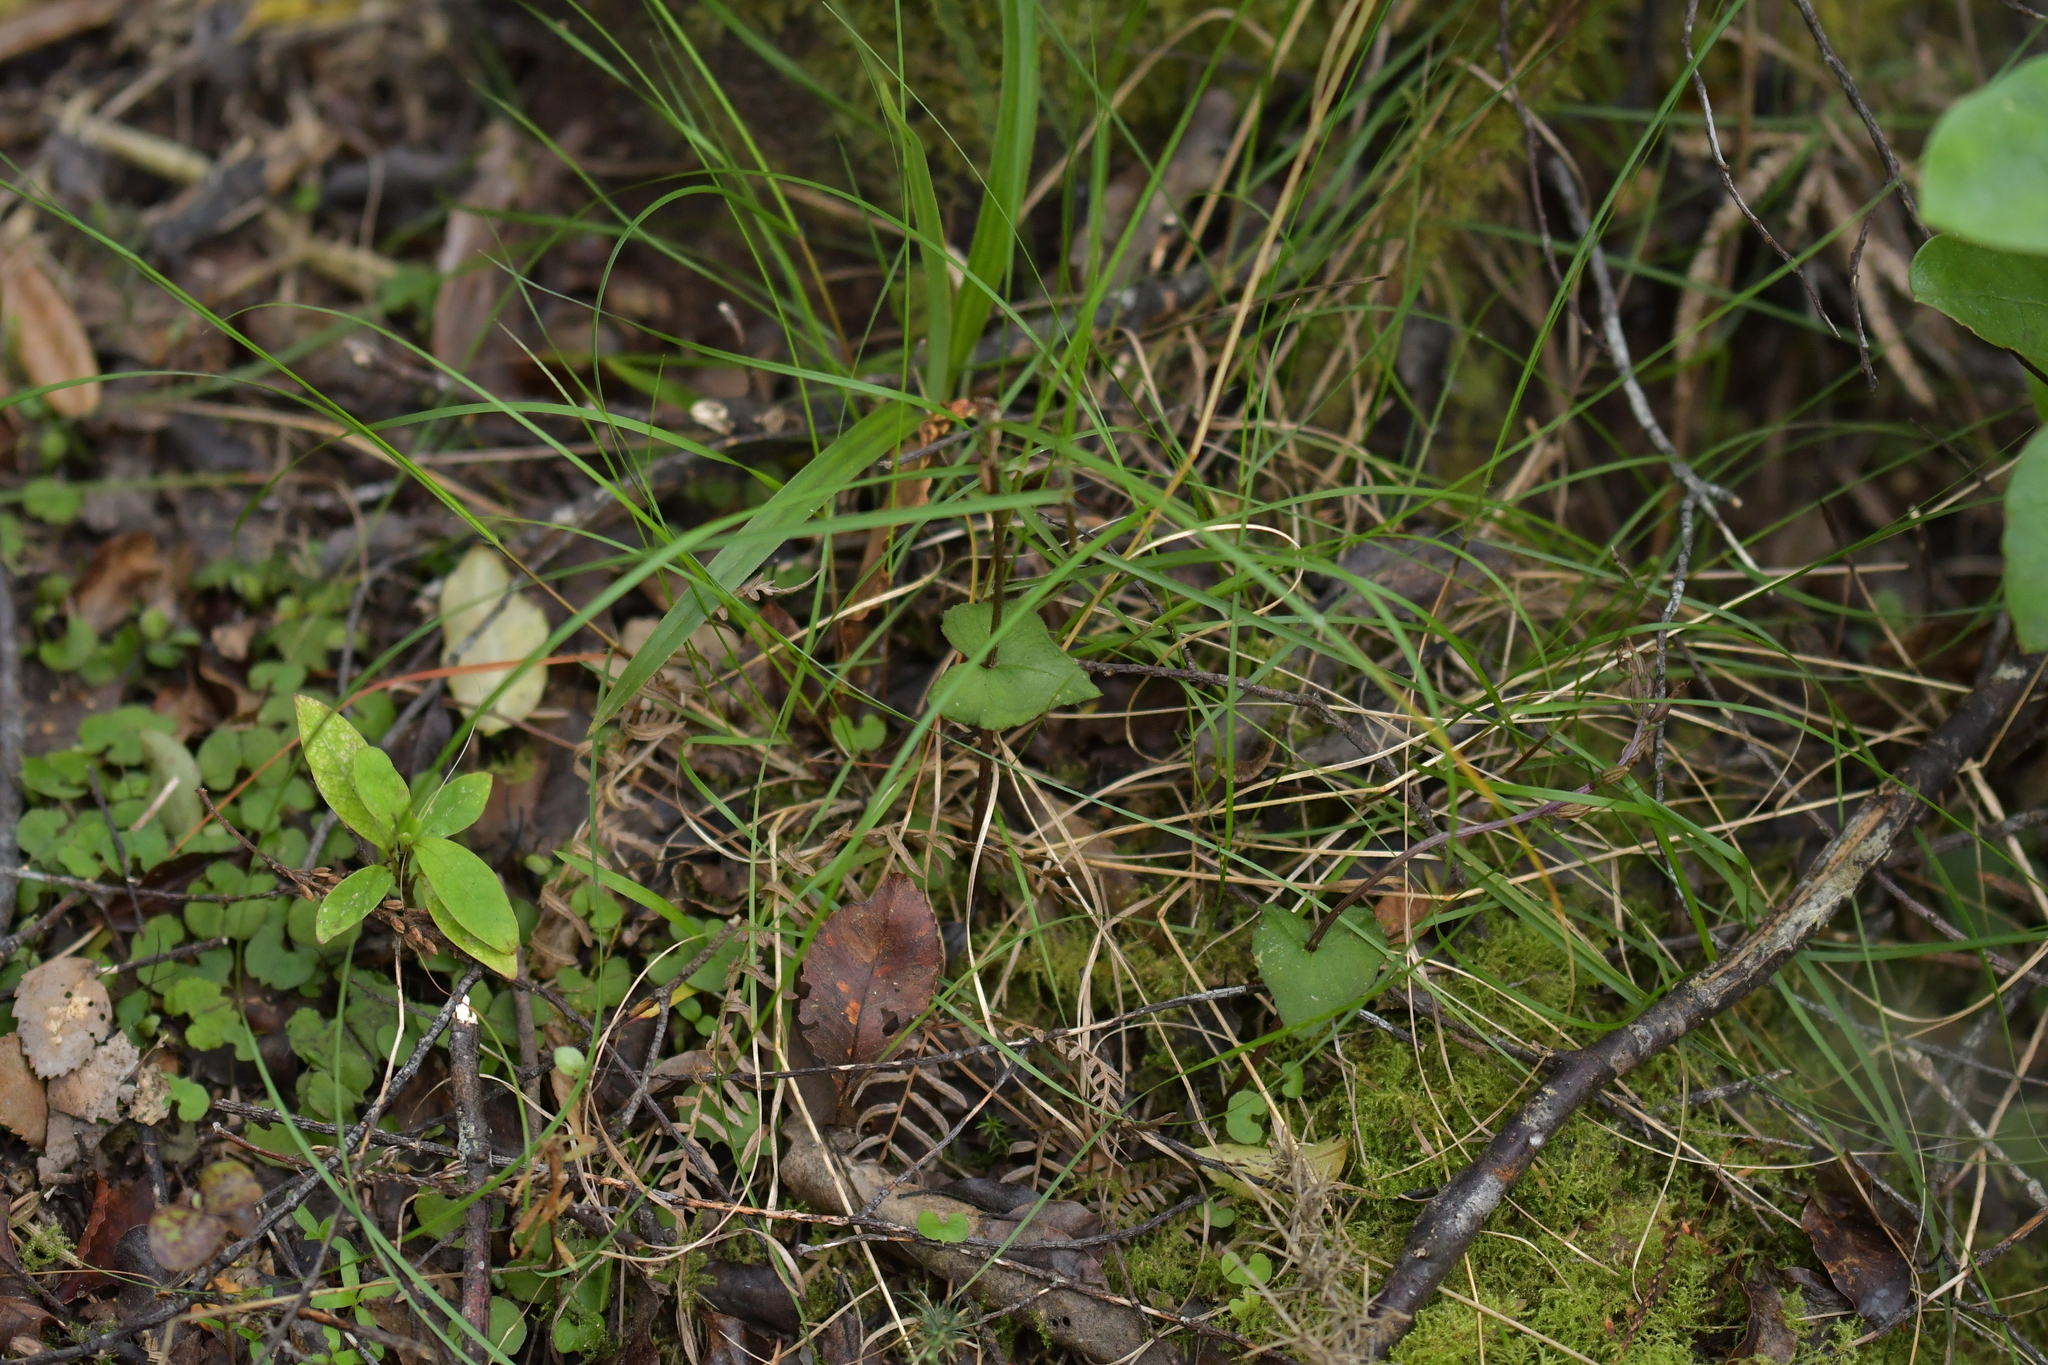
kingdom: Plantae
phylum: Tracheophyta
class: Liliopsida
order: Asparagales
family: Orchidaceae
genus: Acianthus
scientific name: Acianthus sinclairii
